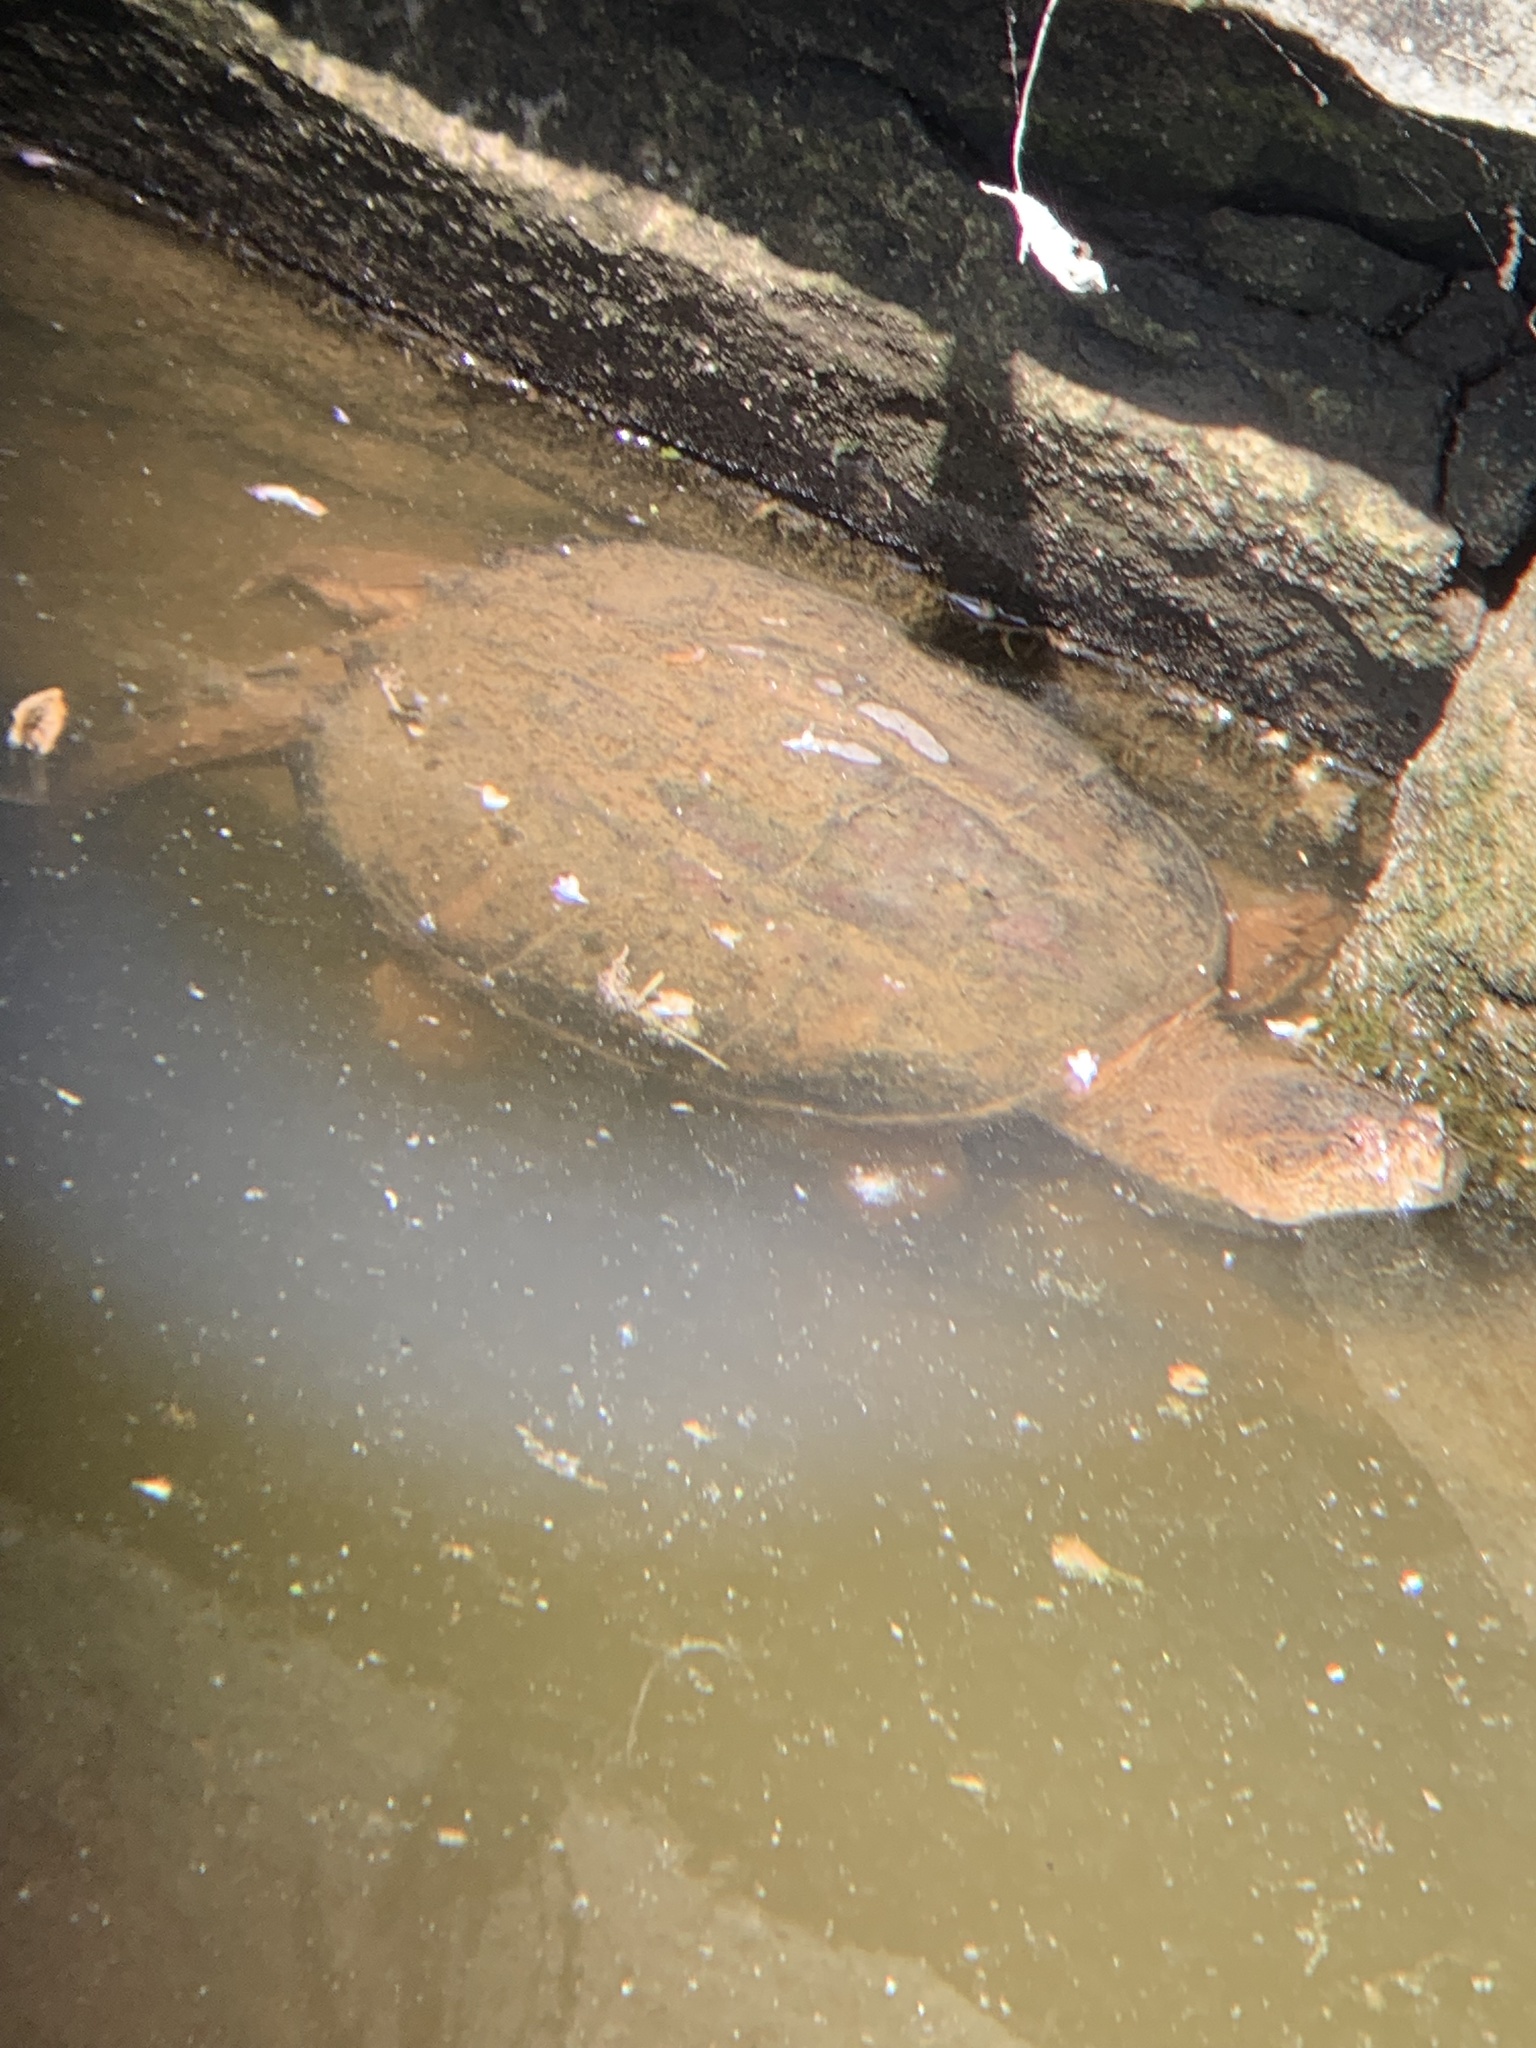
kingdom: Animalia
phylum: Chordata
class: Testudines
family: Chelydridae
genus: Chelydra
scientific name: Chelydra serpentina
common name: Common snapping turtle
